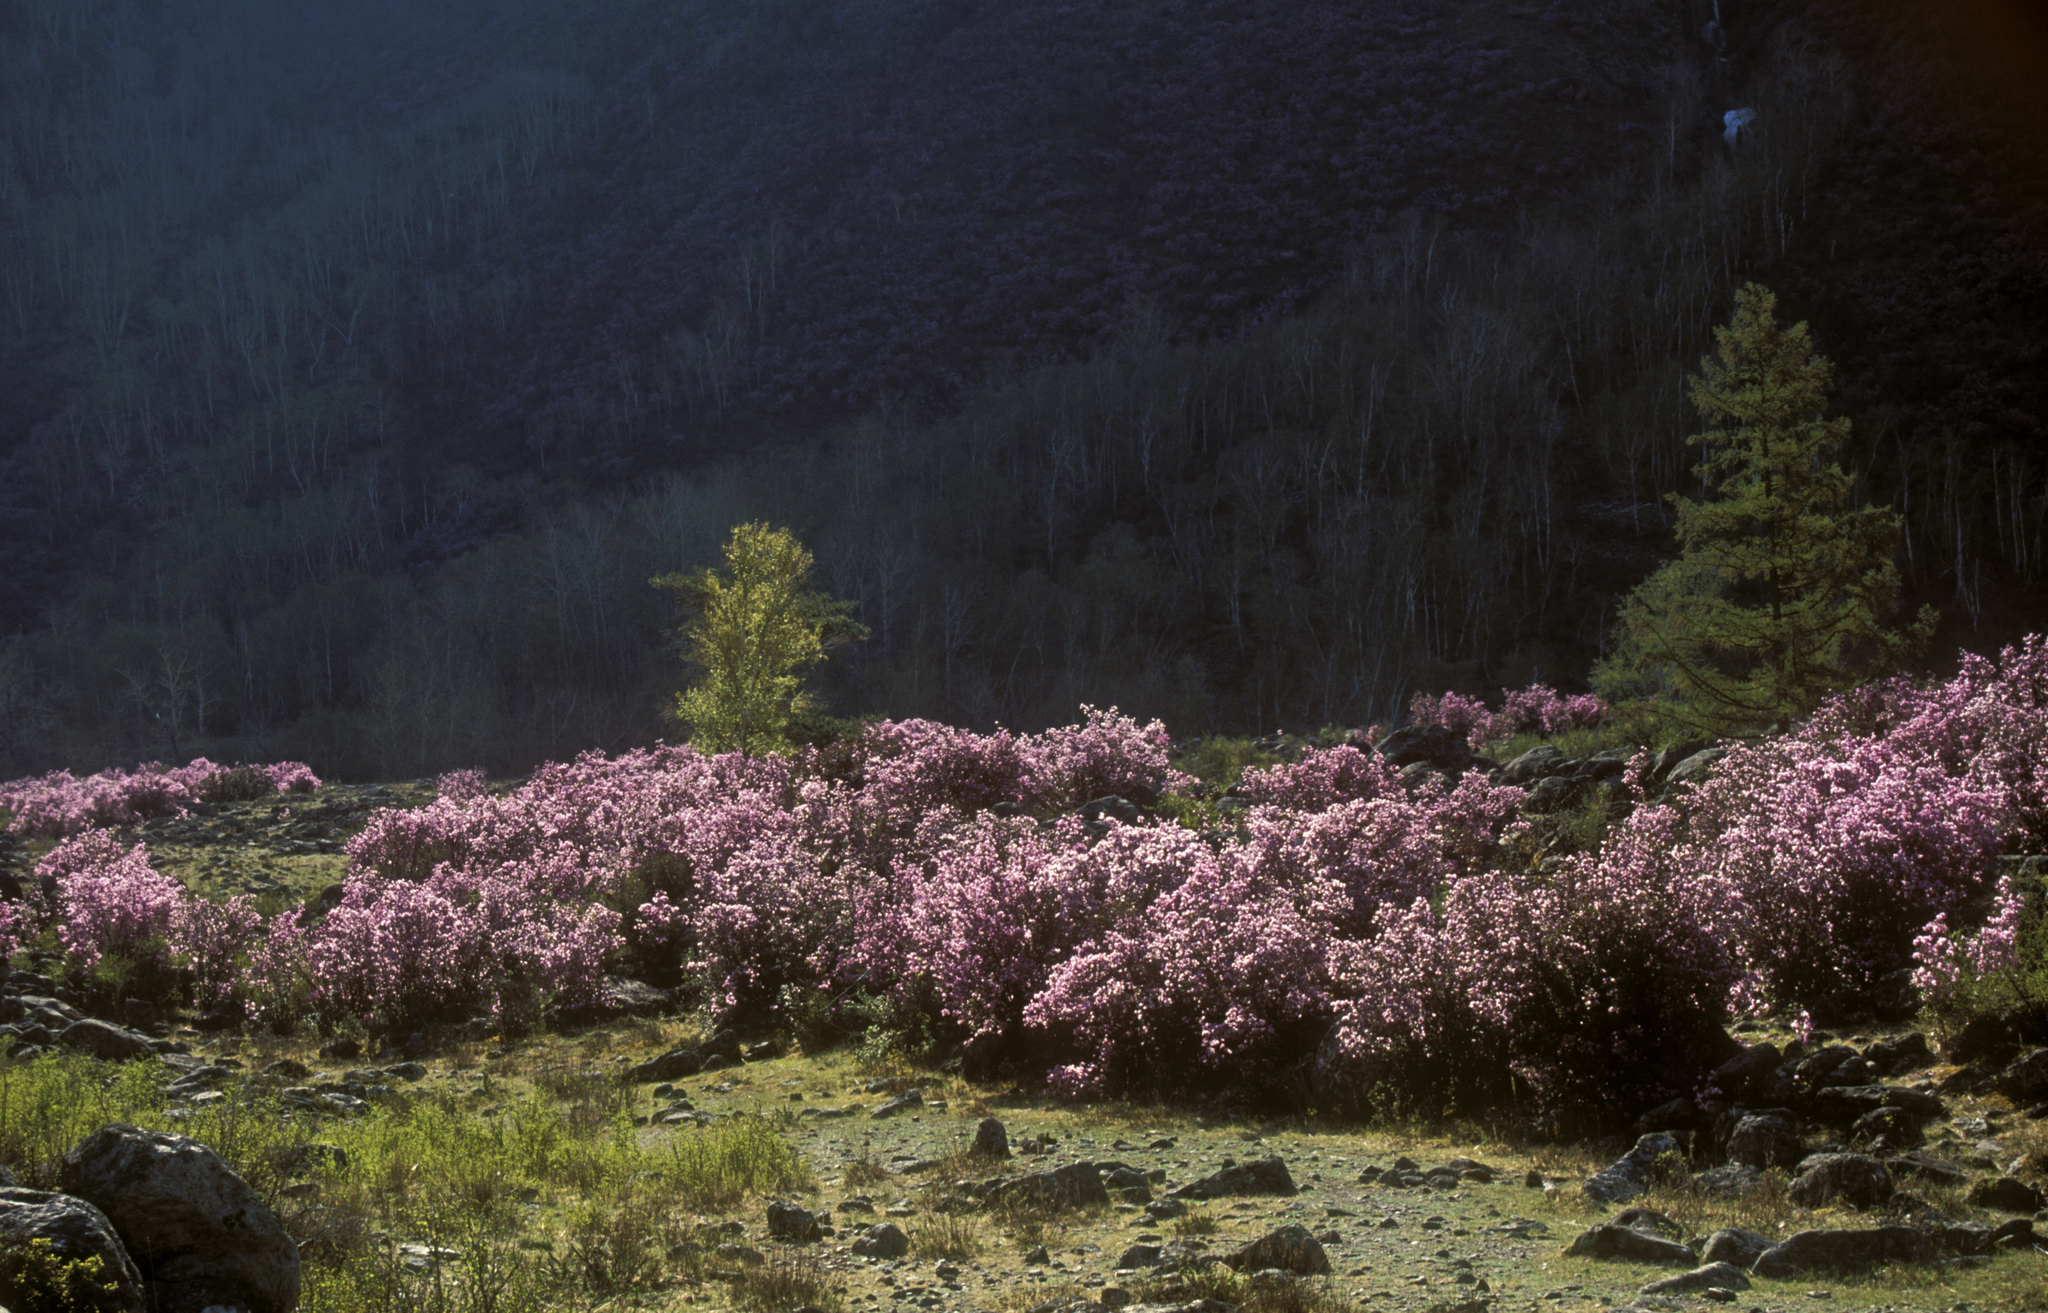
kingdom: Plantae
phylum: Tracheophyta
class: Pinopsida
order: Pinales
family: Pinaceae
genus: Pinus
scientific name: Pinus sylvestris
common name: Scots pine
